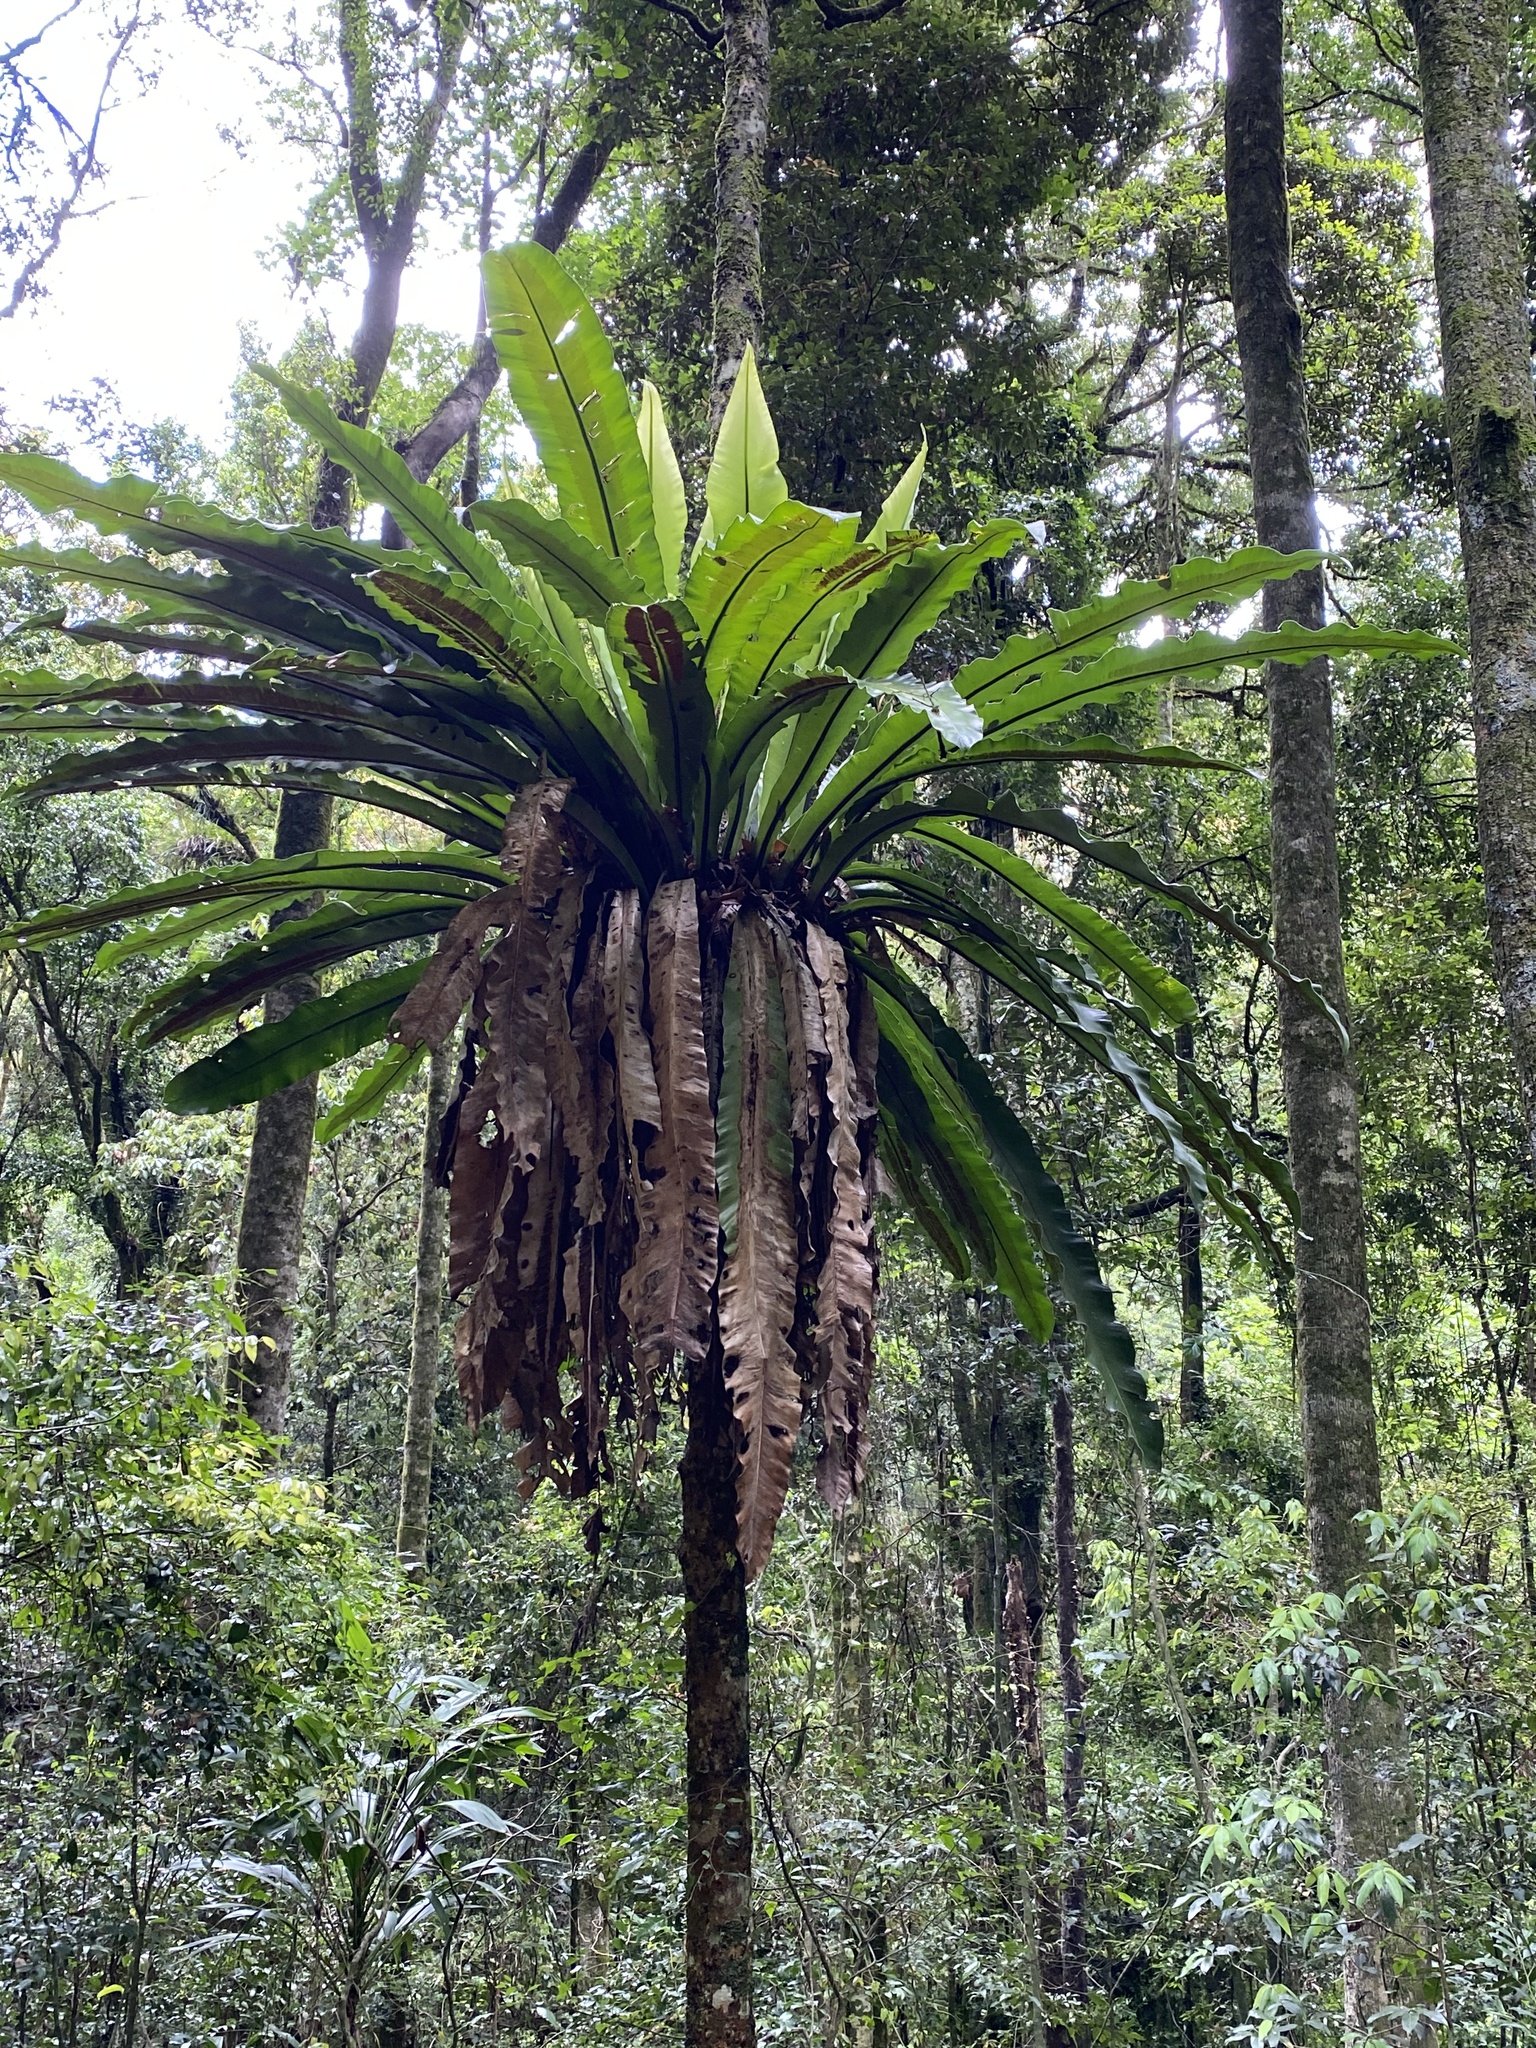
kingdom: Plantae
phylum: Tracheophyta
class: Polypodiopsida
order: Polypodiales
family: Aspleniaceae
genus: Asplenium
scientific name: Asplenium australasicum
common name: Bird's-nest fern
